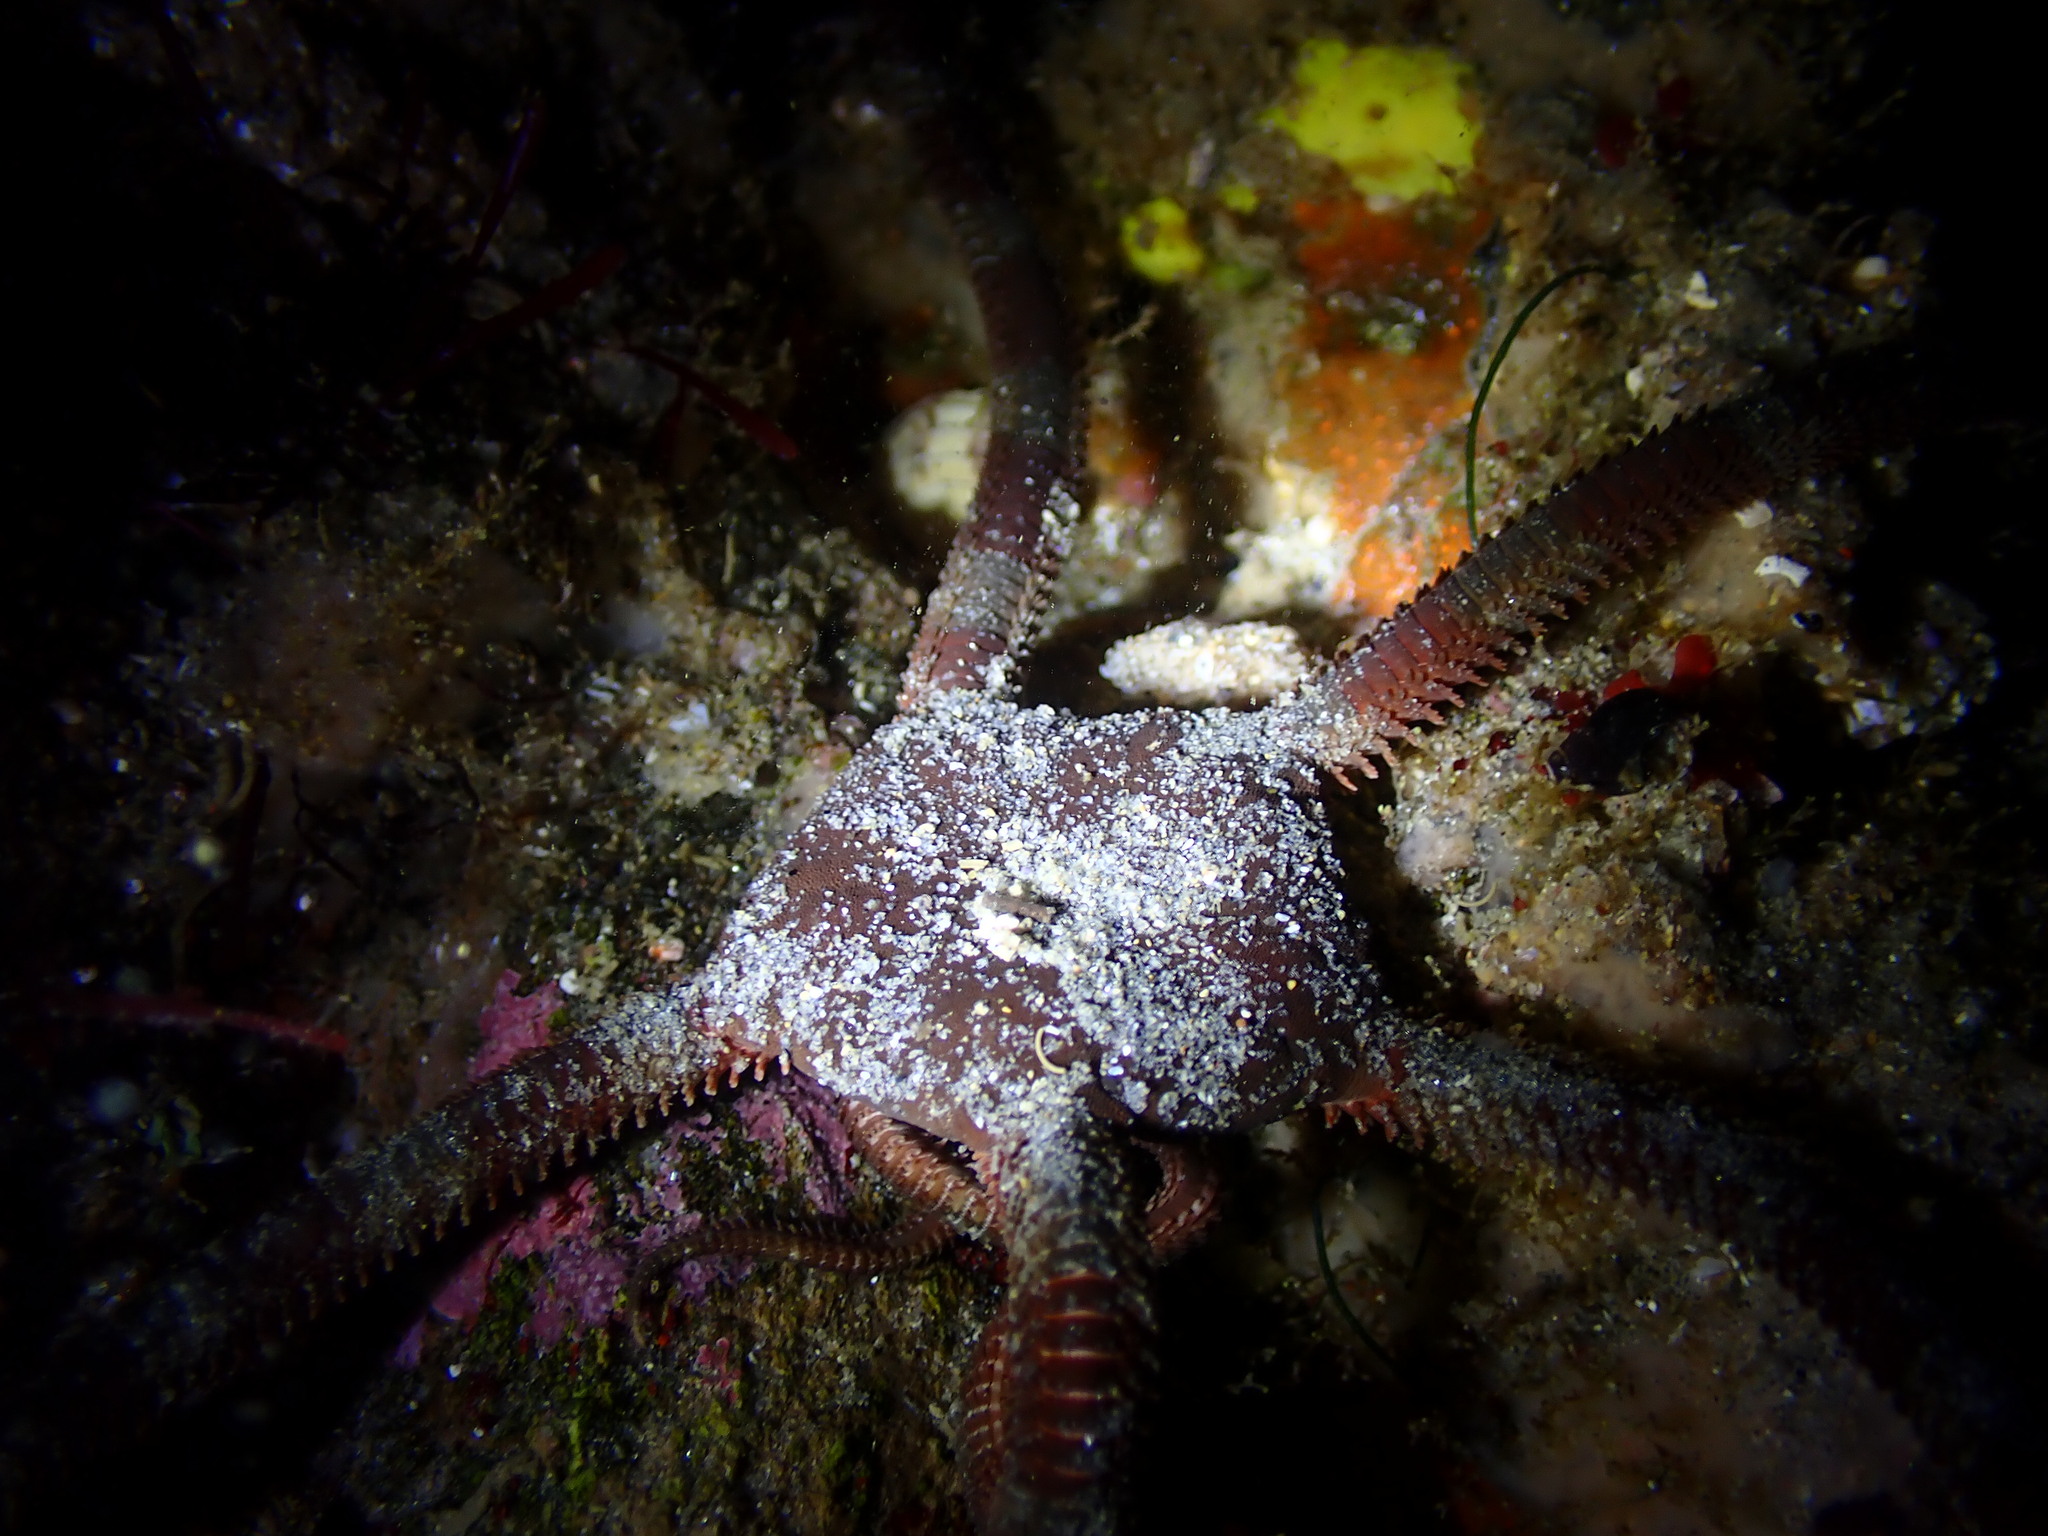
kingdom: Animalia
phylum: Echinodermata
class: Ophiuroidea
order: Ophiacanthida
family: Ophiodermatidae
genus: Ophioderma
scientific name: Ophioderma panamense
